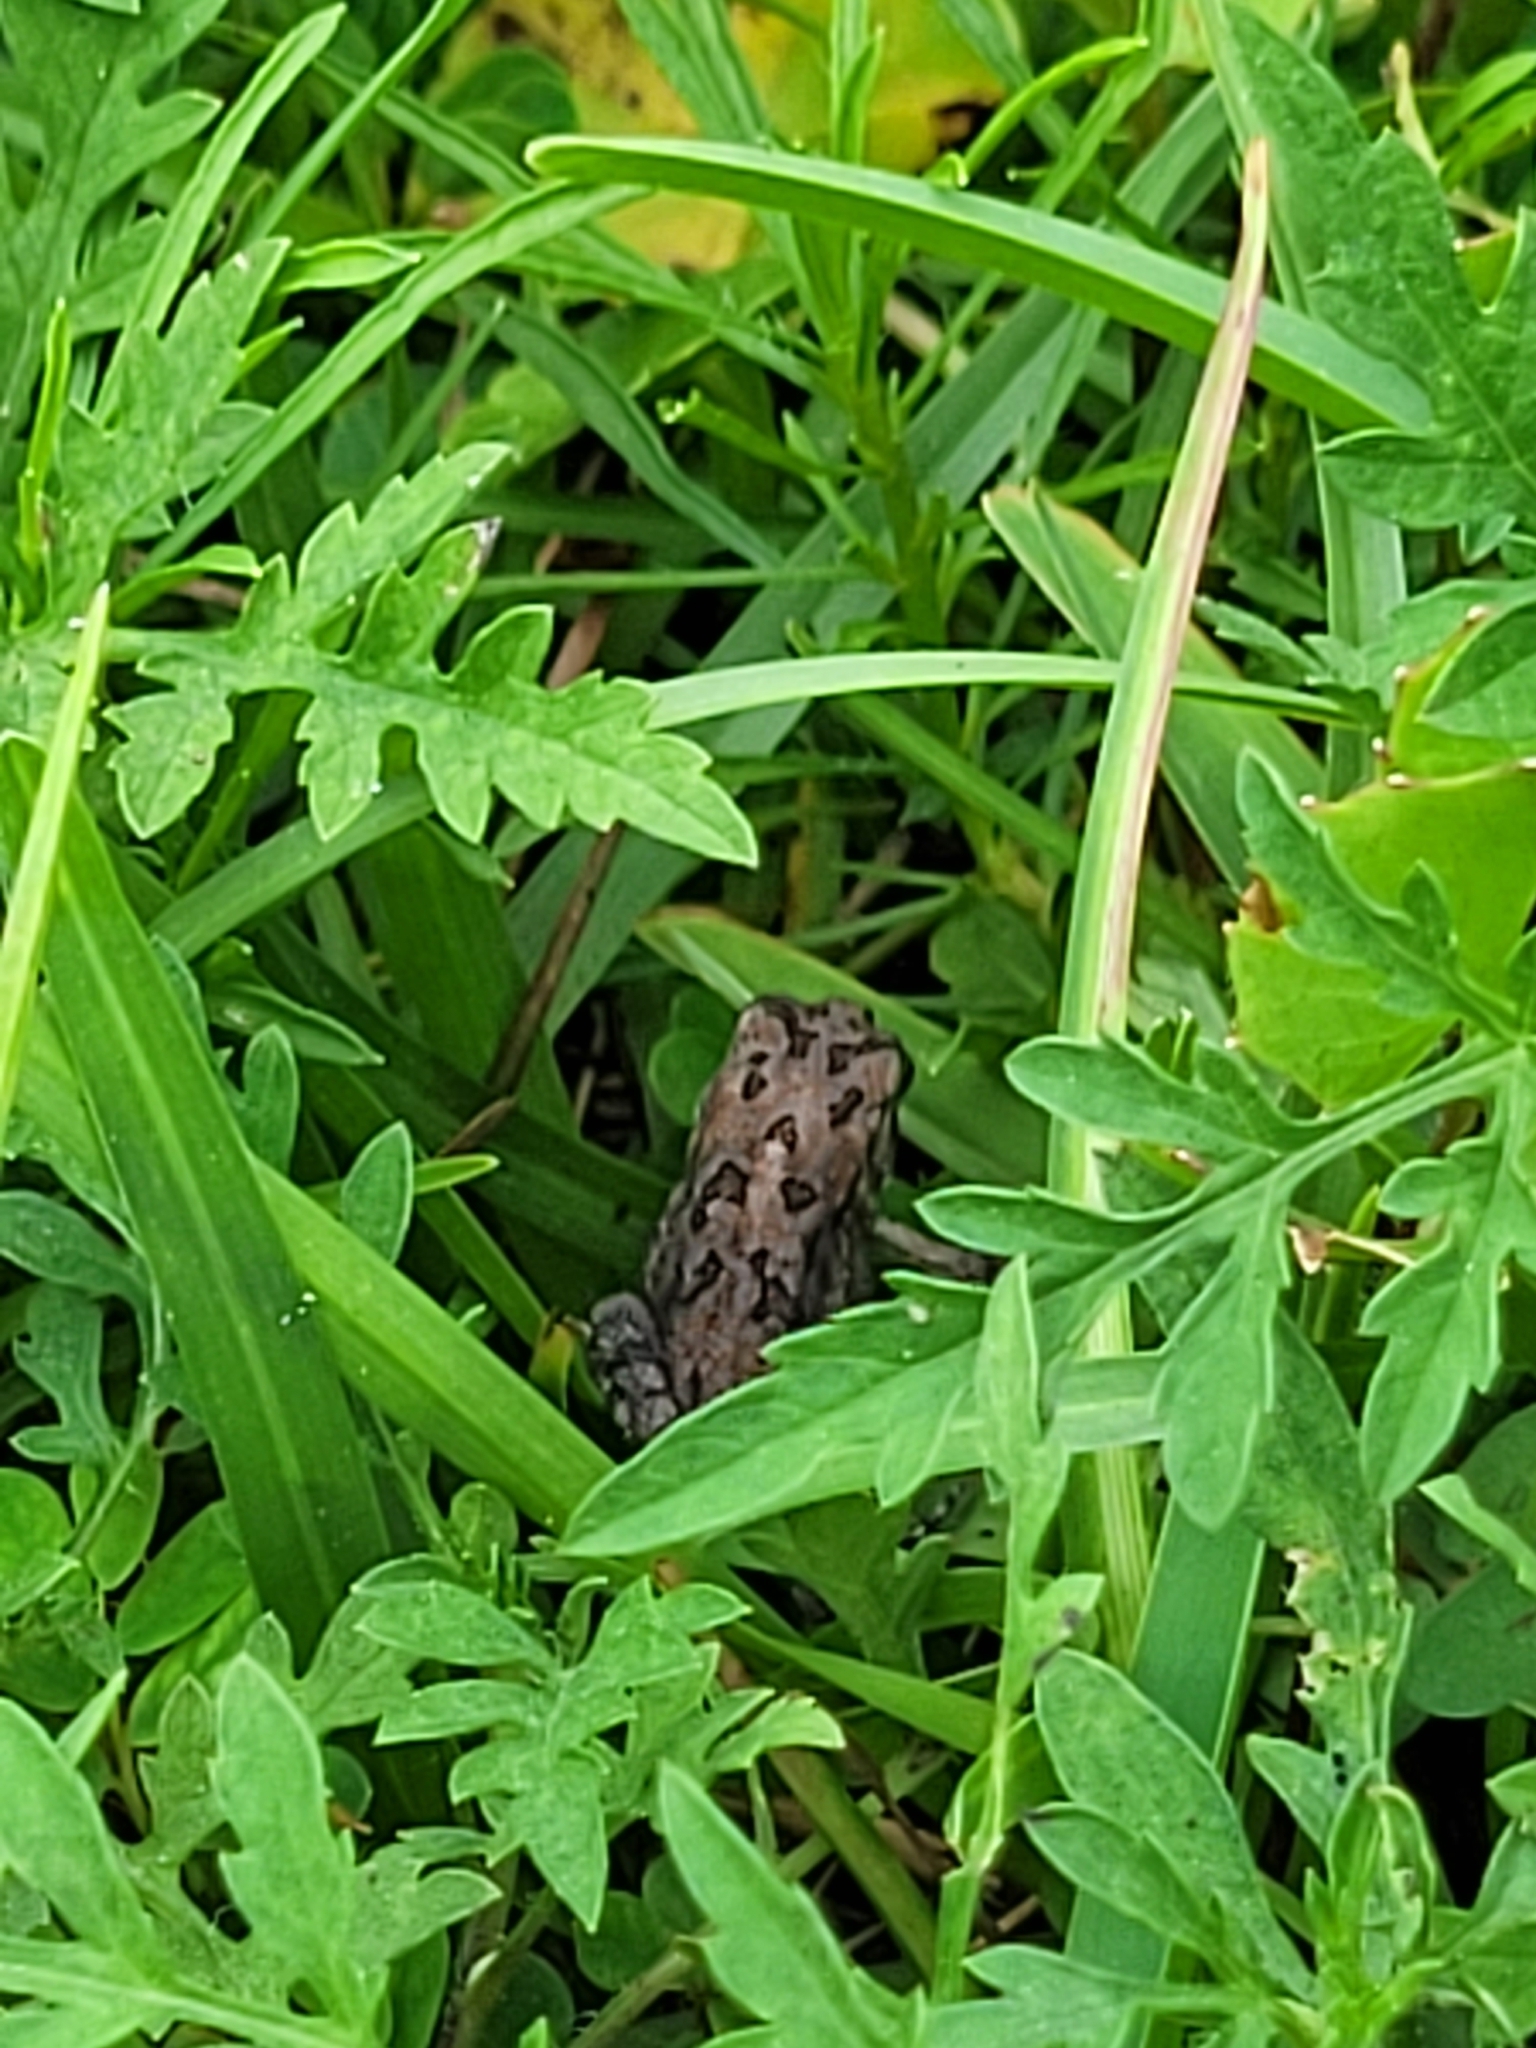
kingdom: Animalia
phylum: Chordata
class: Amphibia
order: Anura
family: Bufonidae
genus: Anaxyrus
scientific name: Anaxyrus terrestris
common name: Southern toad
